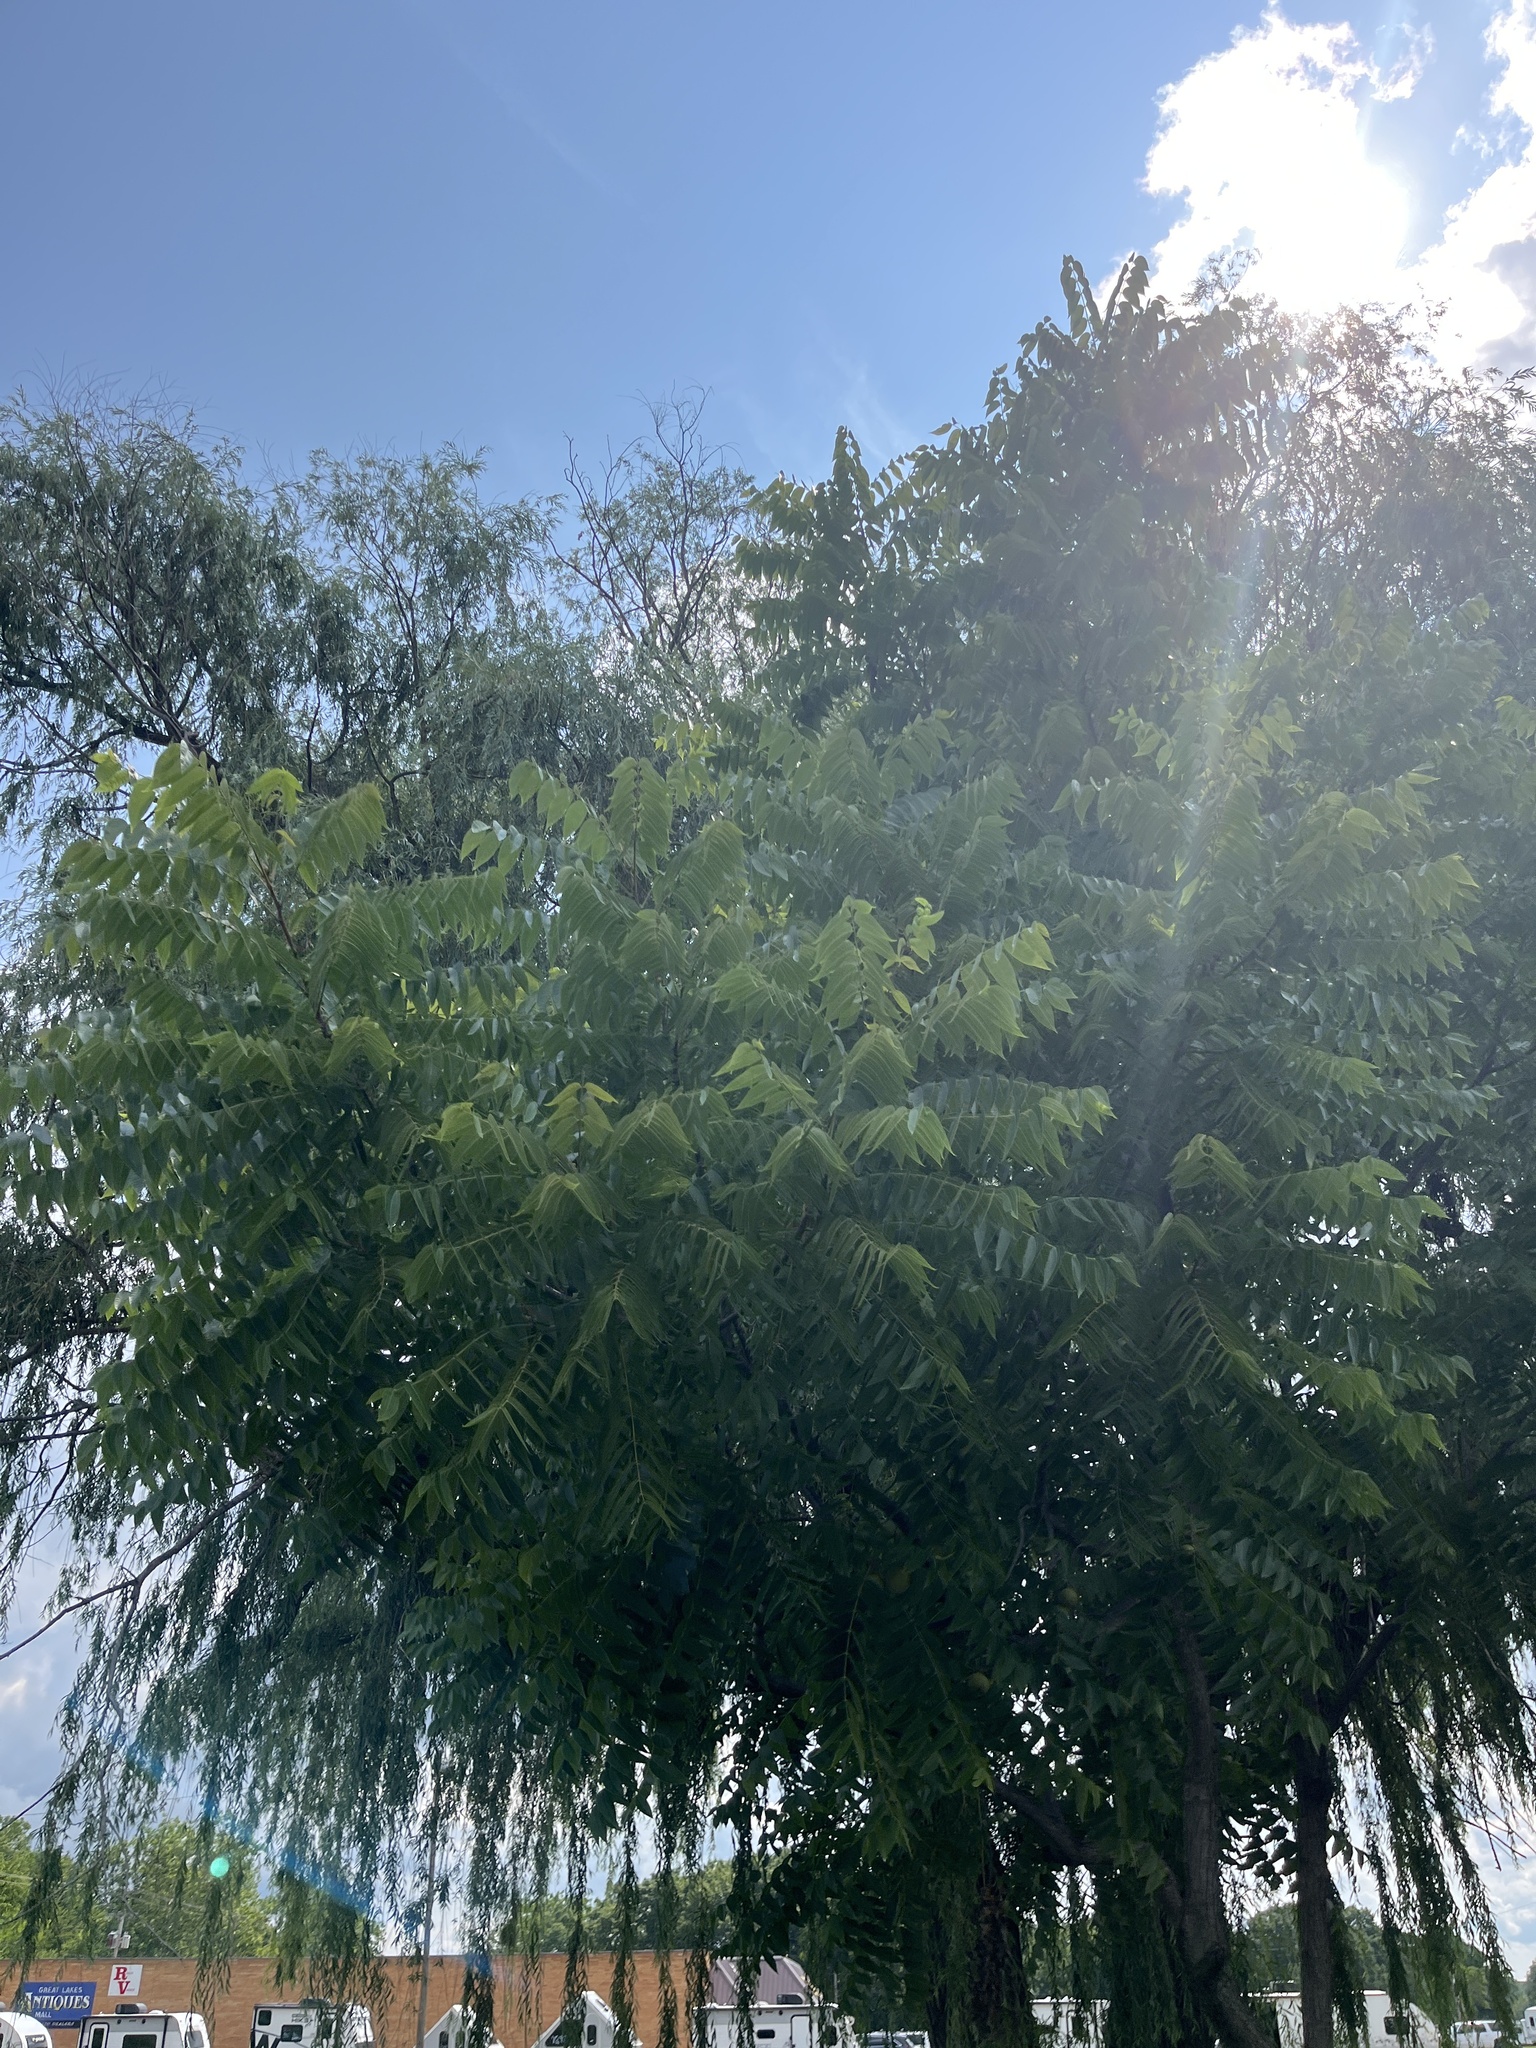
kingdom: Plantae
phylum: Tracheophyta
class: Magnoliopsida
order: Sapindales
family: Simaroubaceae
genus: Ailanthus
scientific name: Ailanthus altissima
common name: Tree-of-heaven
